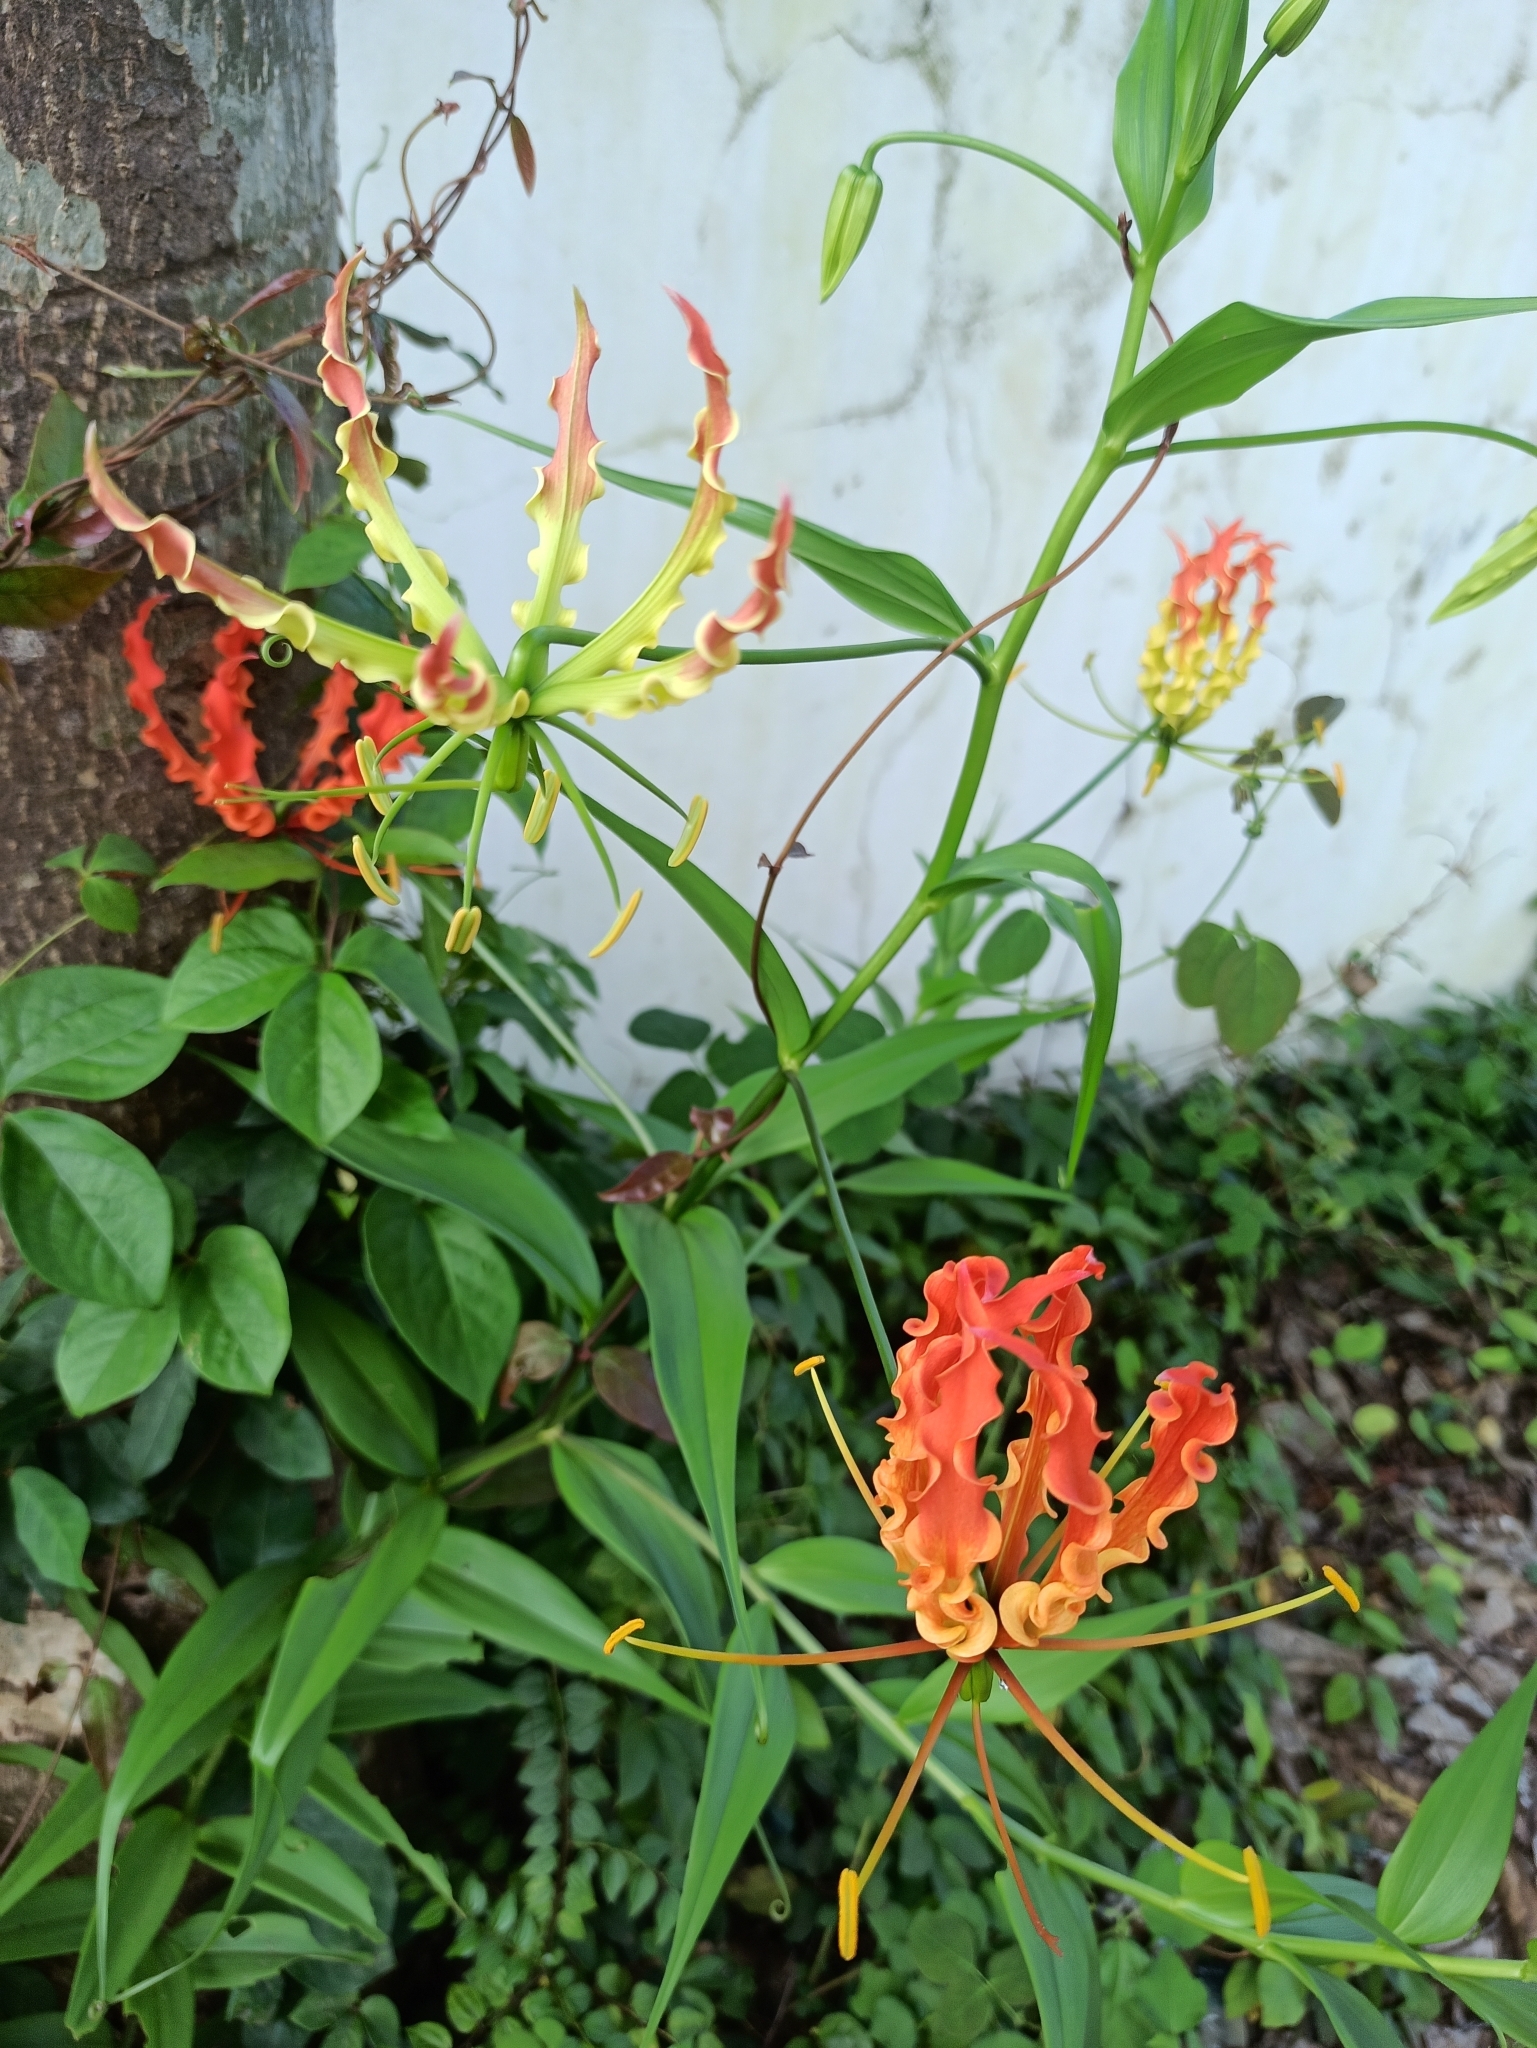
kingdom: Plantae
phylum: Tracheophyta
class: Liliopsida
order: Liliales
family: Colchicaceae
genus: Gloriosa
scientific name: Gloriosa superba
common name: Flame lily
